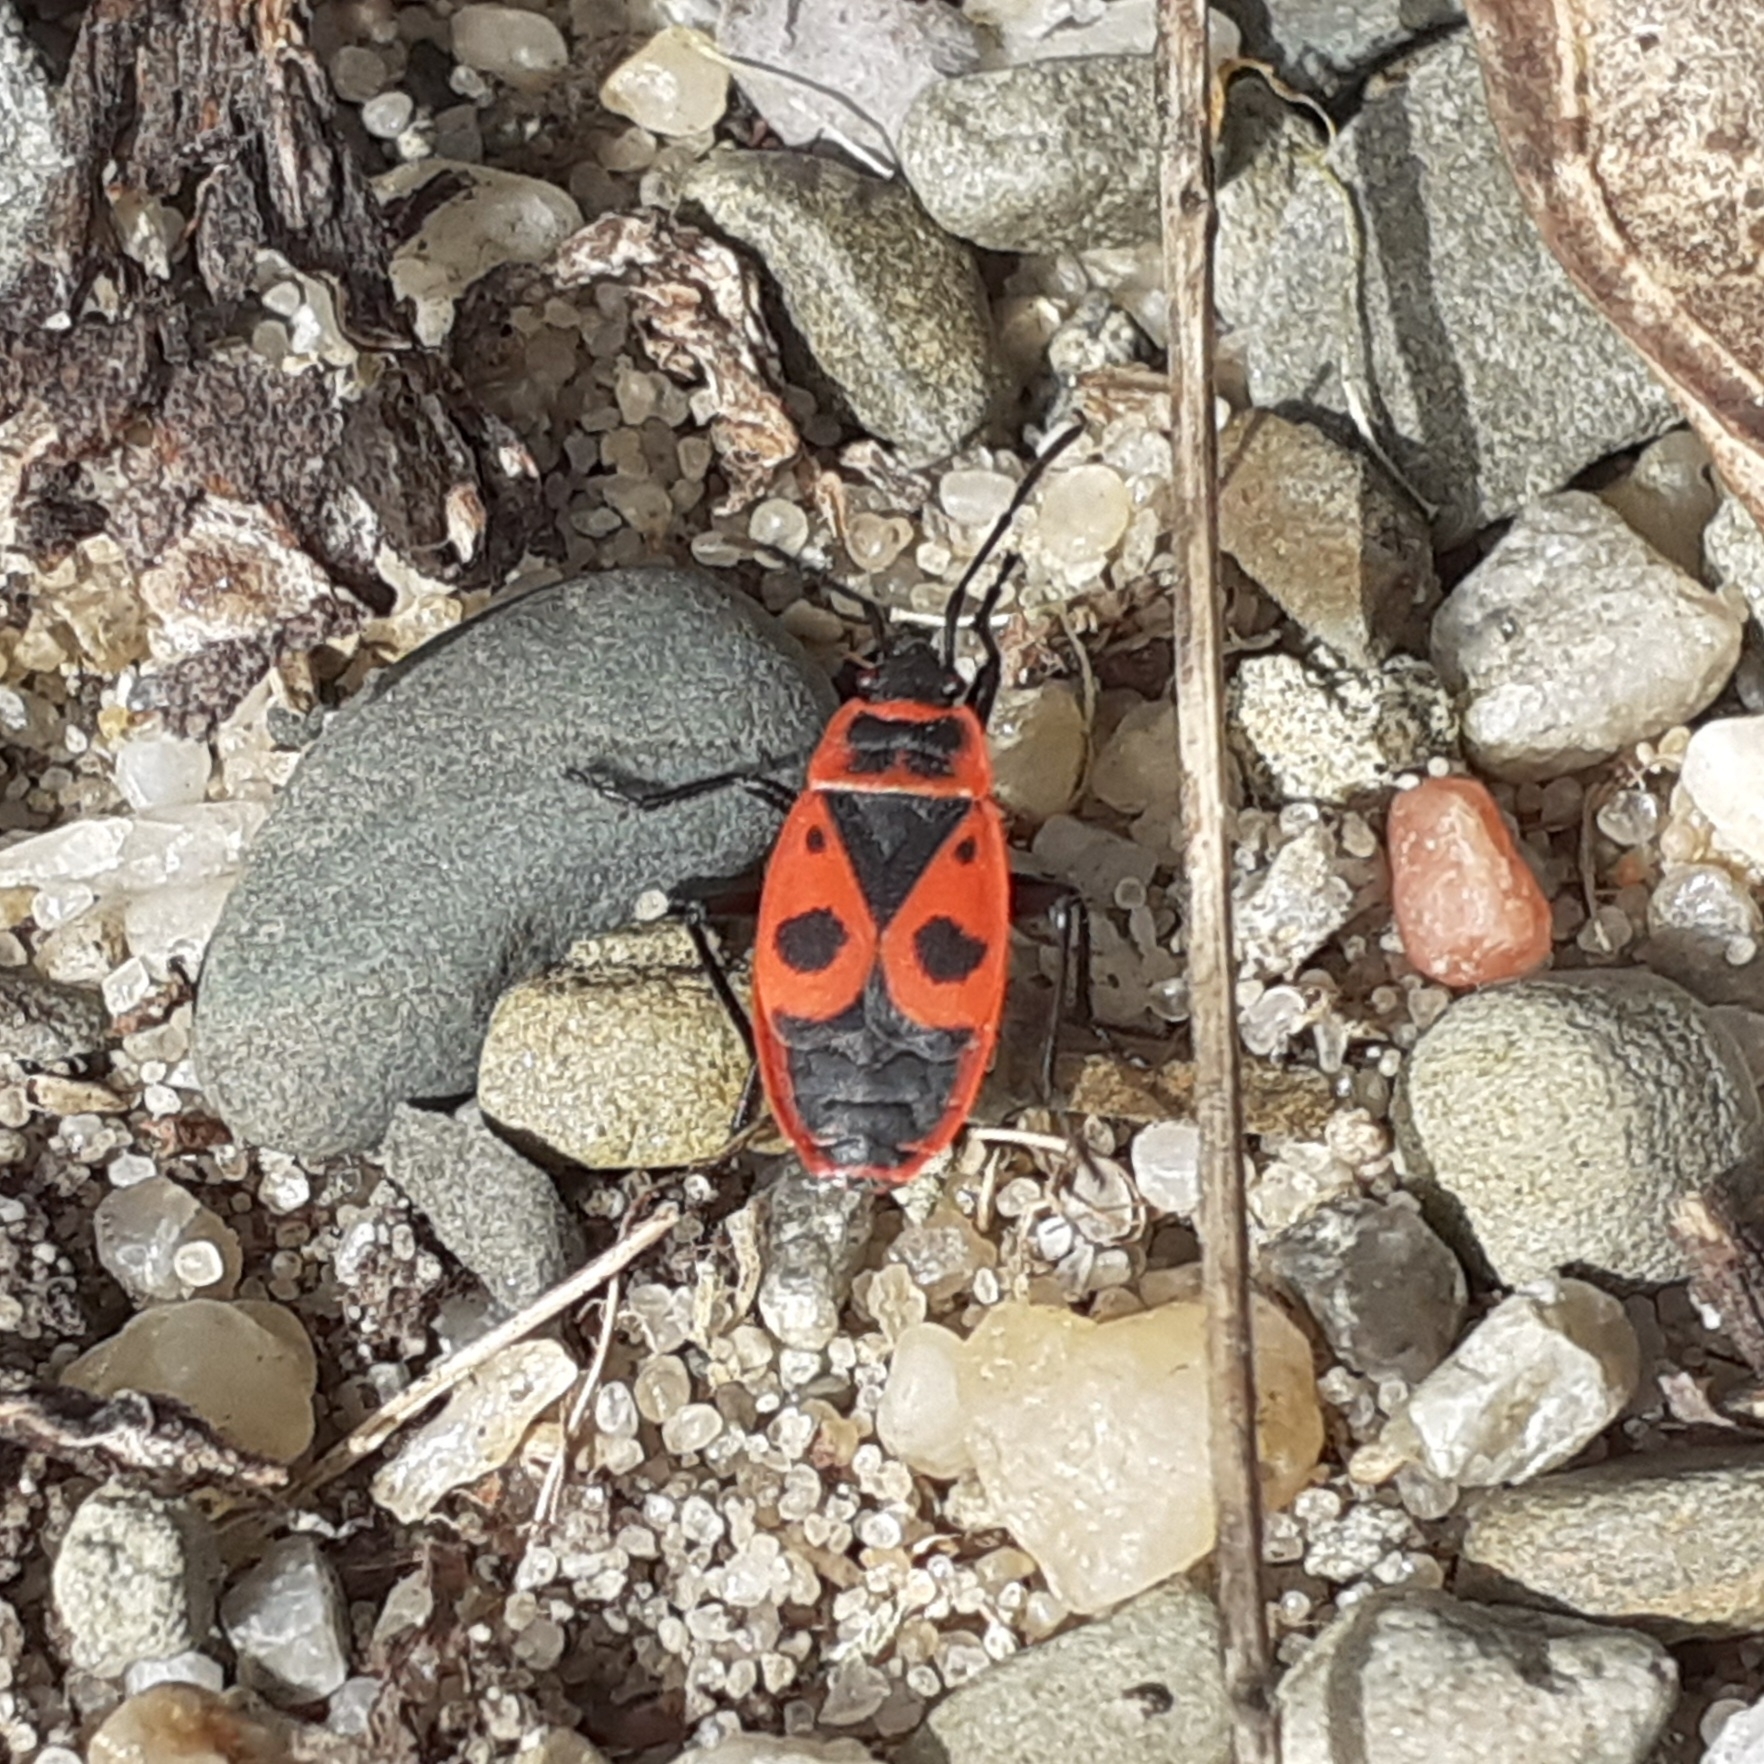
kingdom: Animalia
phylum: Arthropoda
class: Insecta
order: Hemiptera
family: Pyrrhocoridae
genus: Pyrrhocoris
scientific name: Pyrrhocoris apterus
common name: Firebug
